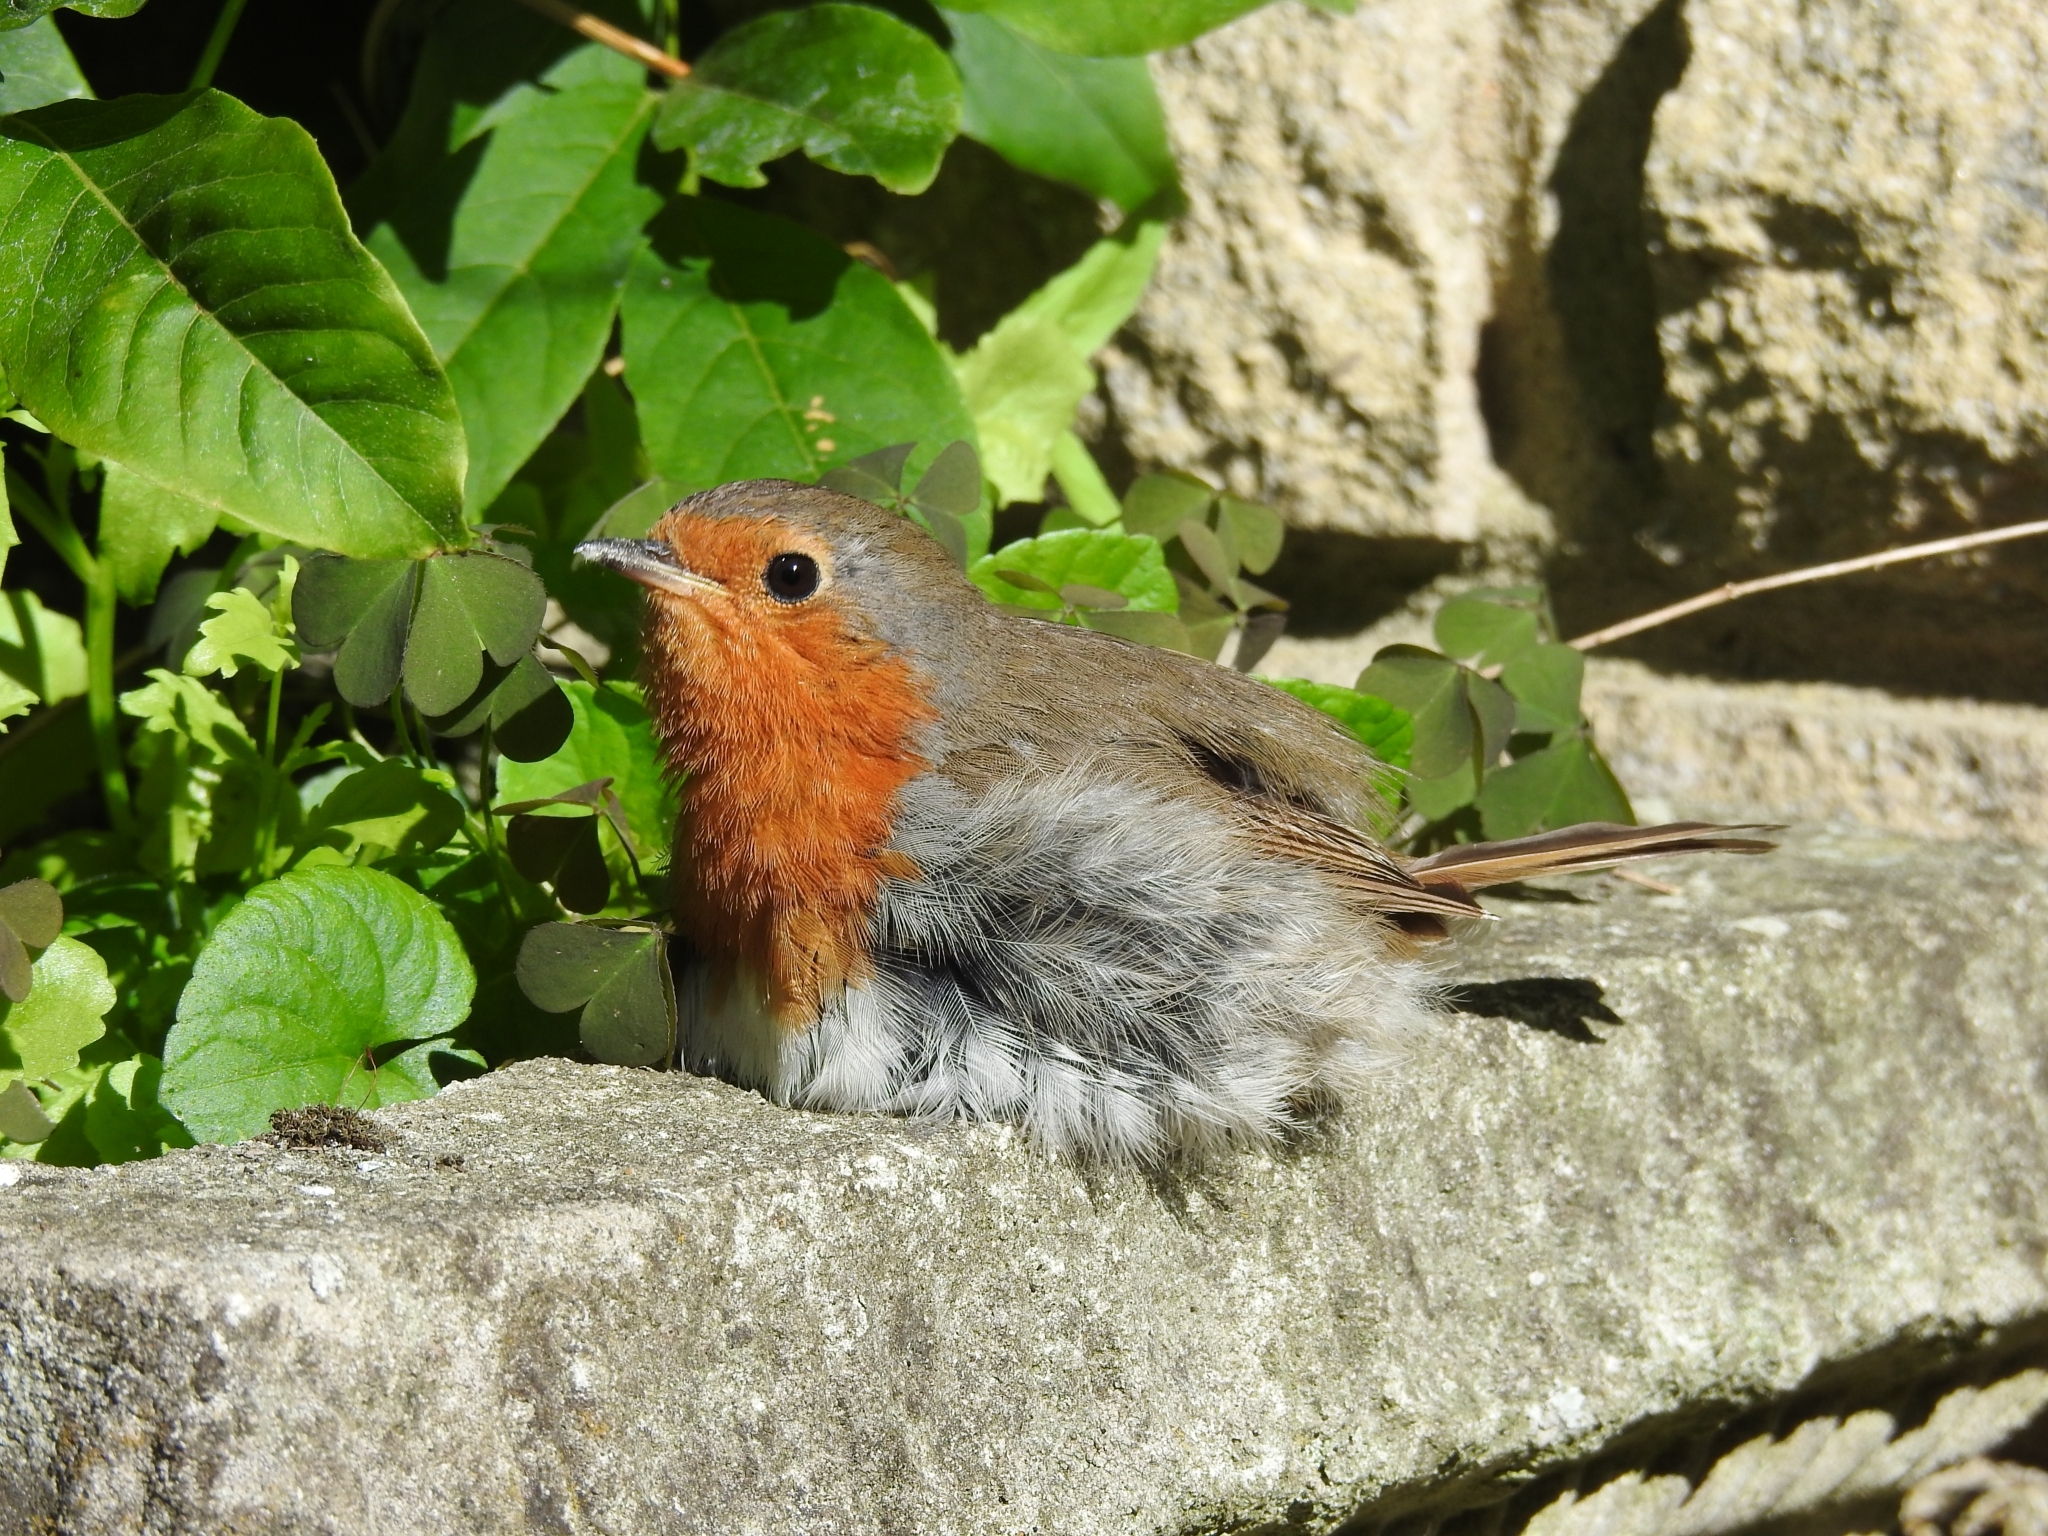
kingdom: Animalia
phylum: Chordata
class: Aves
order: Passeriformes
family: Muscicapidae
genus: Erithacus
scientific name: Erithacus rubecula
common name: European robin
